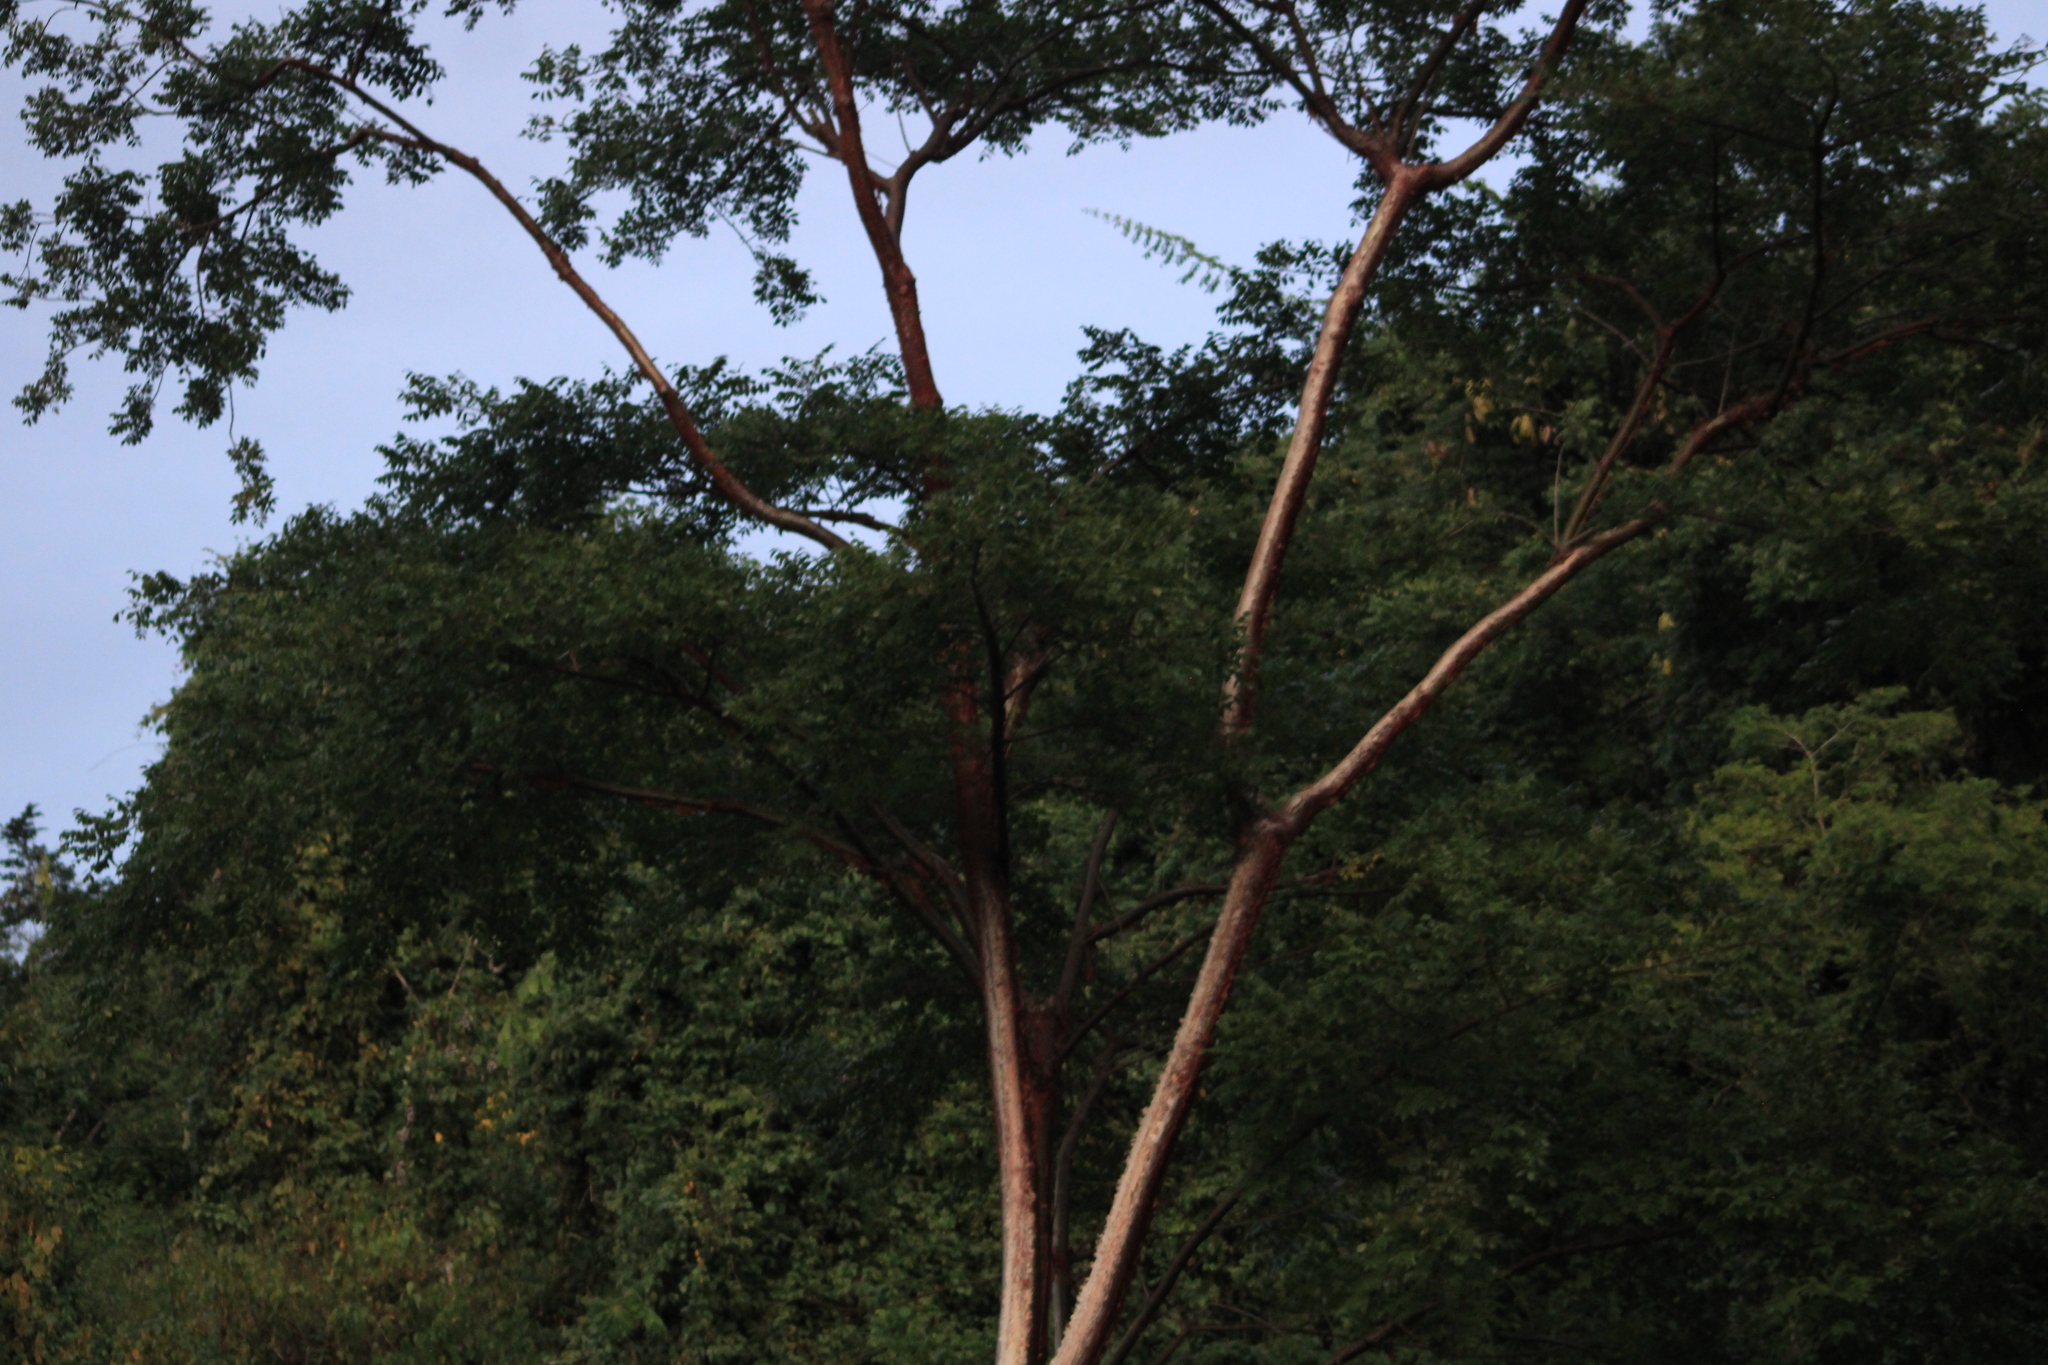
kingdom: Plantae
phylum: Tracheophyta
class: Magnoliopsida
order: Sapindales
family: Burseraceae
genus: Bursera
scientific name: Bursera grandifolia
